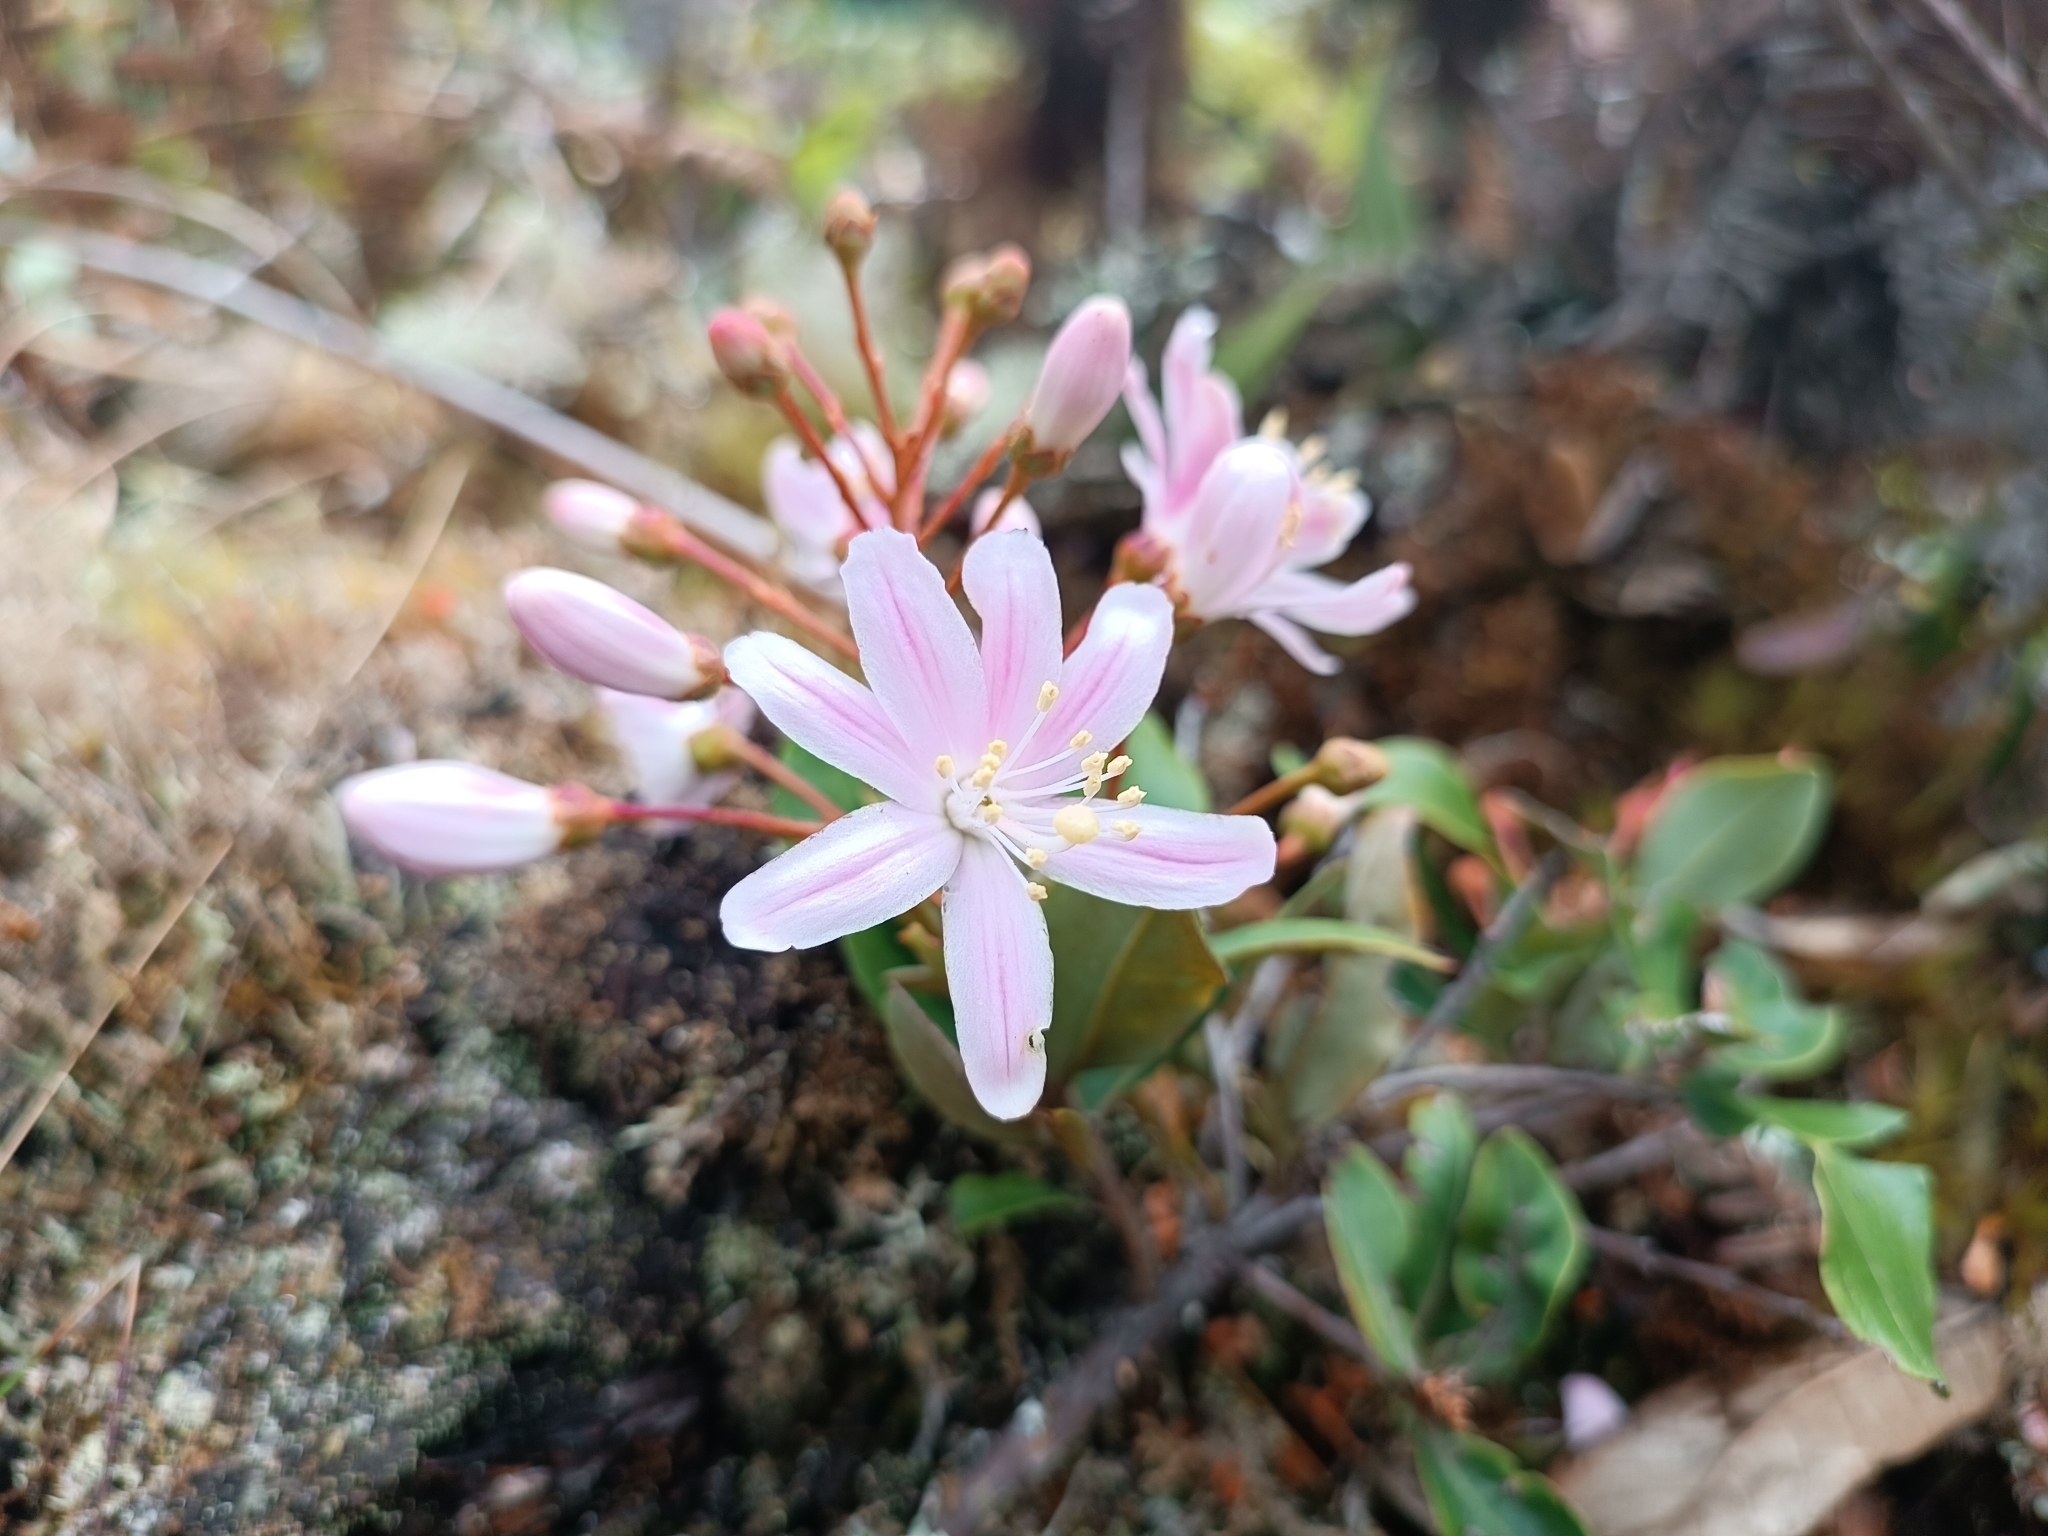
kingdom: Plantae
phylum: Tracheophyta
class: Magnoliopsida
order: Ericales
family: Ericaceae
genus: Bejaria
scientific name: Bejaria aestuans
